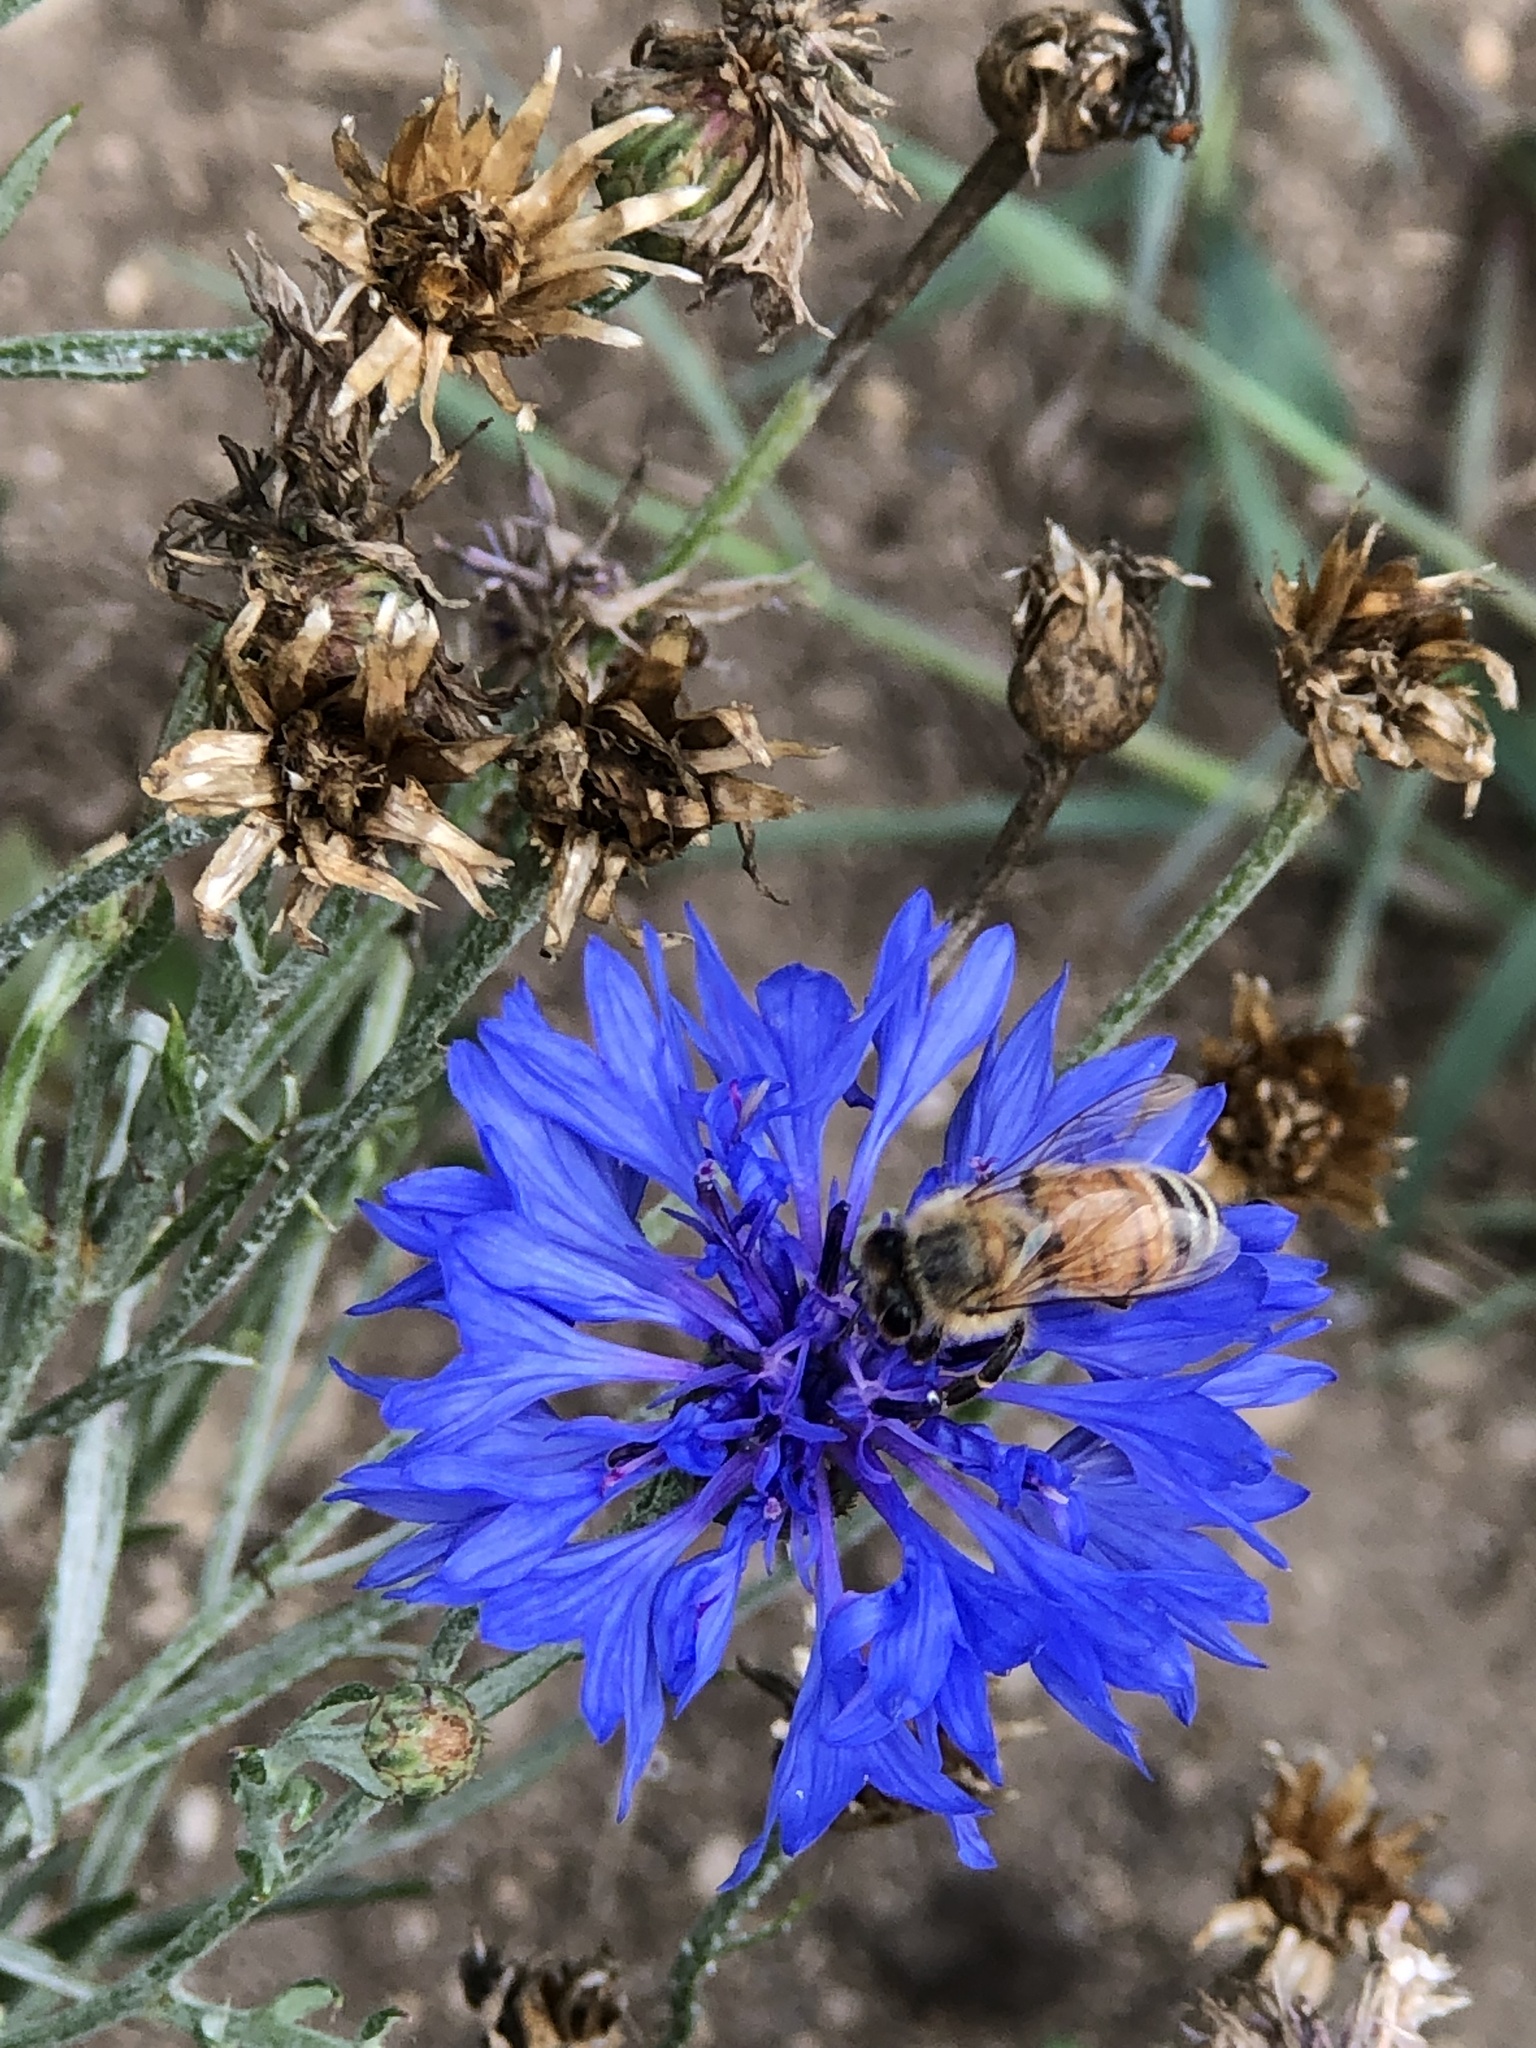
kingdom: Animalia
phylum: Arthropoda
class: Insecta
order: Hymenoptera
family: Apidae
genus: Apis
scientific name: Apis mellifera
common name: Honey bee
